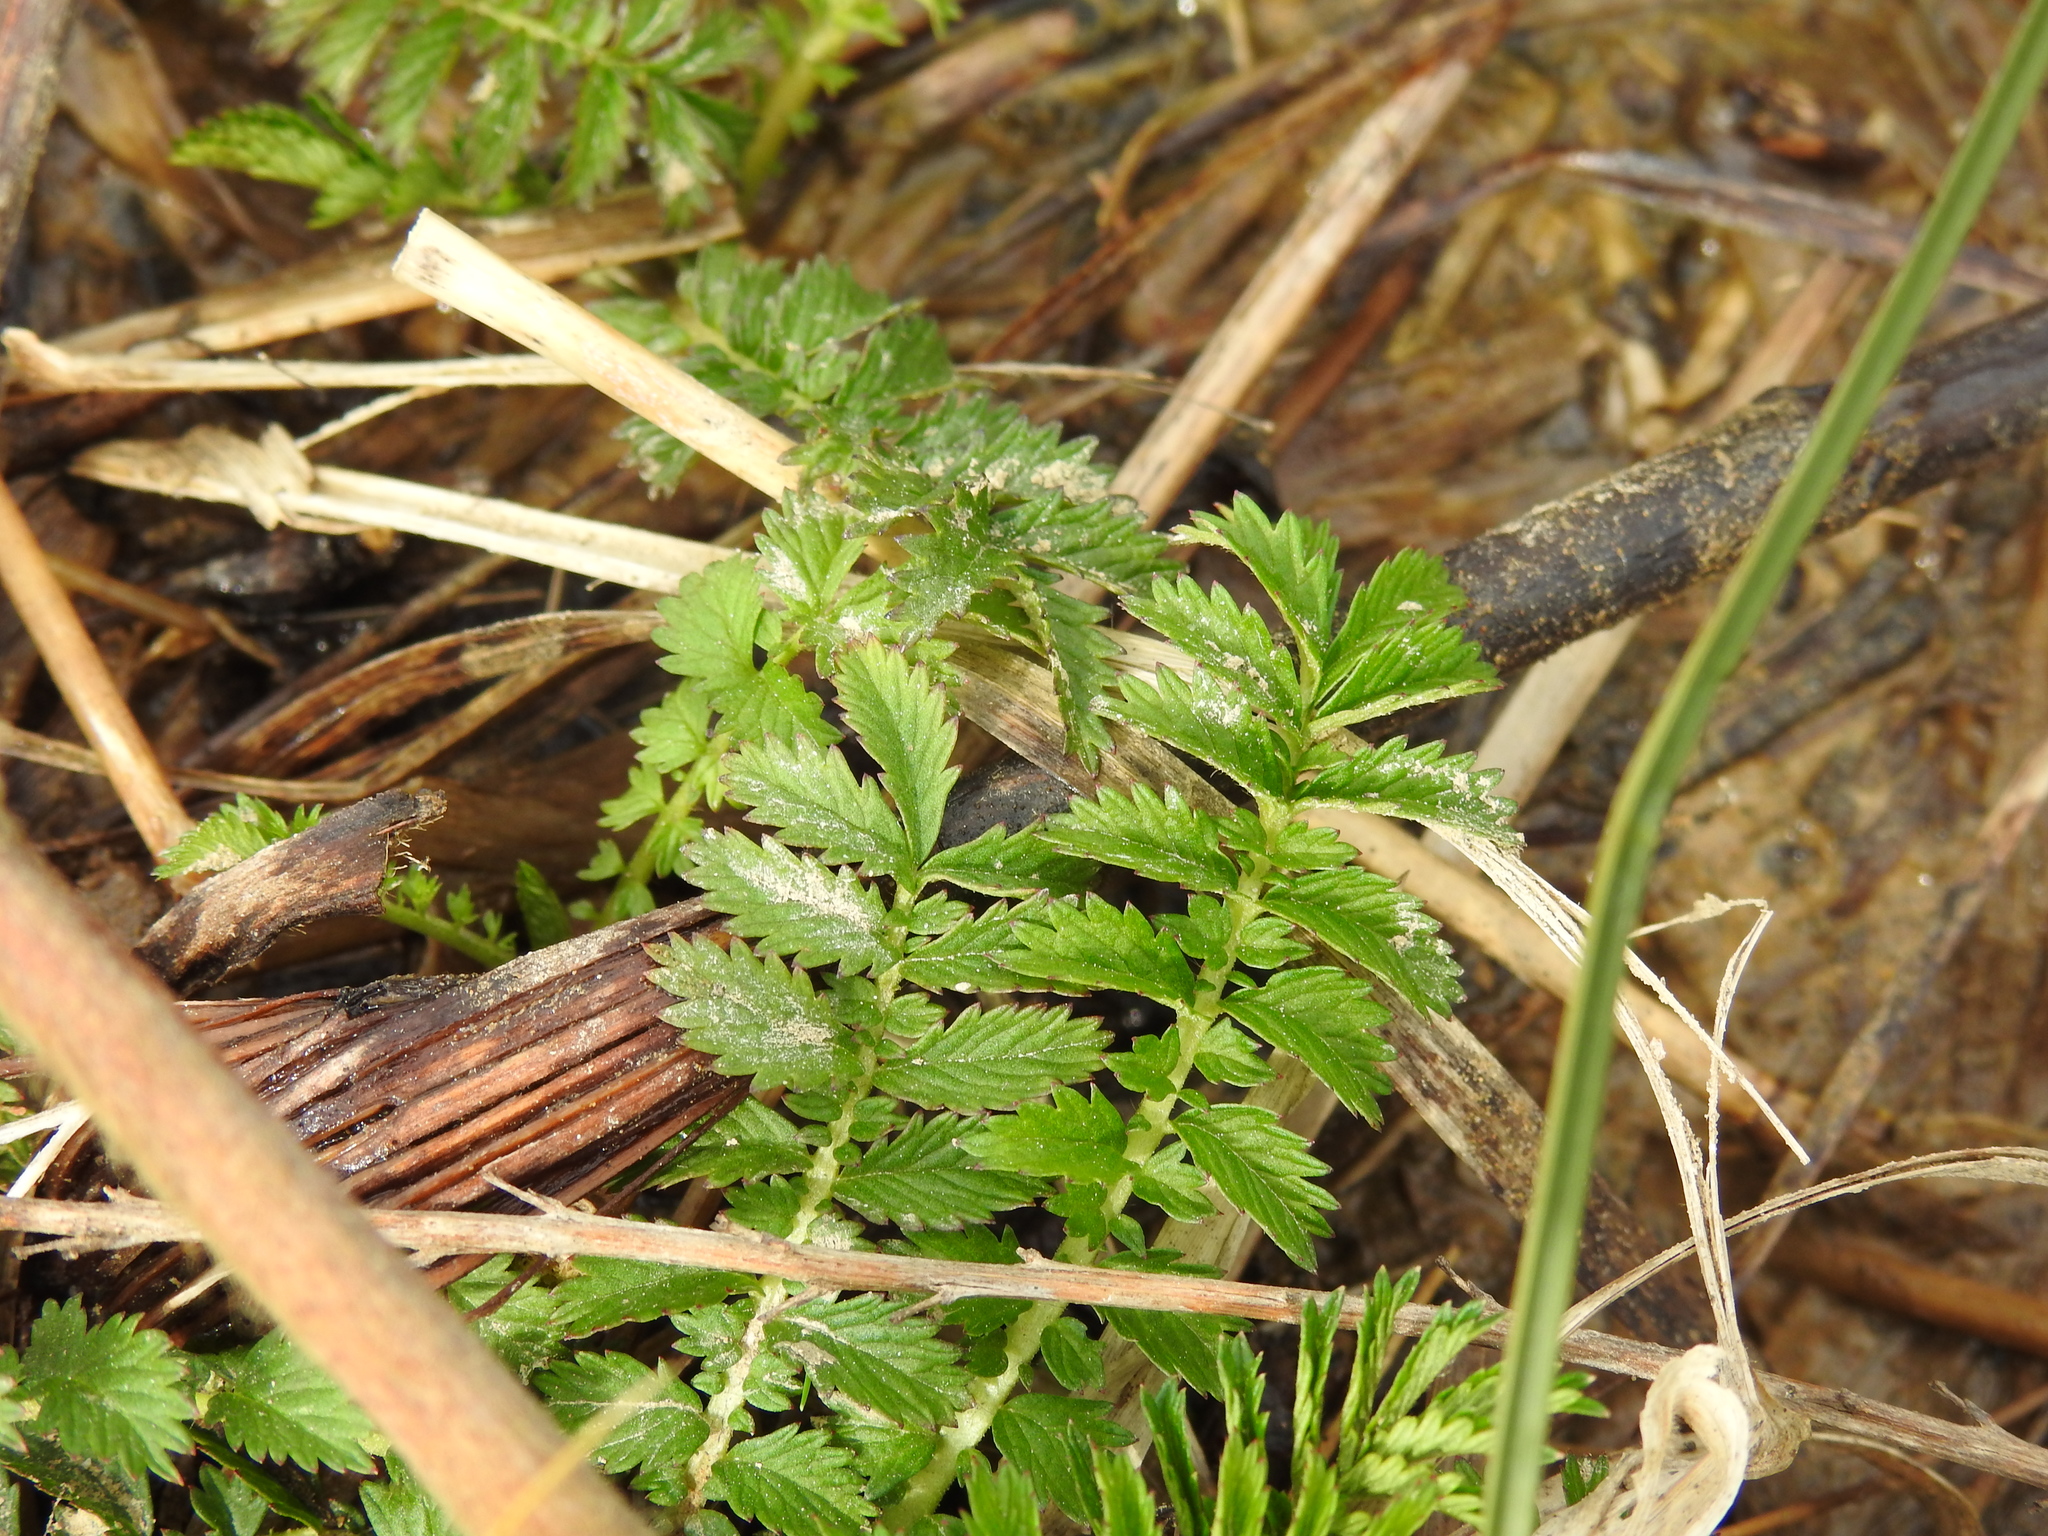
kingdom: Plantae
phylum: Tracheophyta
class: Magnoliopsida
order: Rosales
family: Rosaceae
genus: Agrimonia
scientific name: Agrimonia parviflora
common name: Harvest-lice
